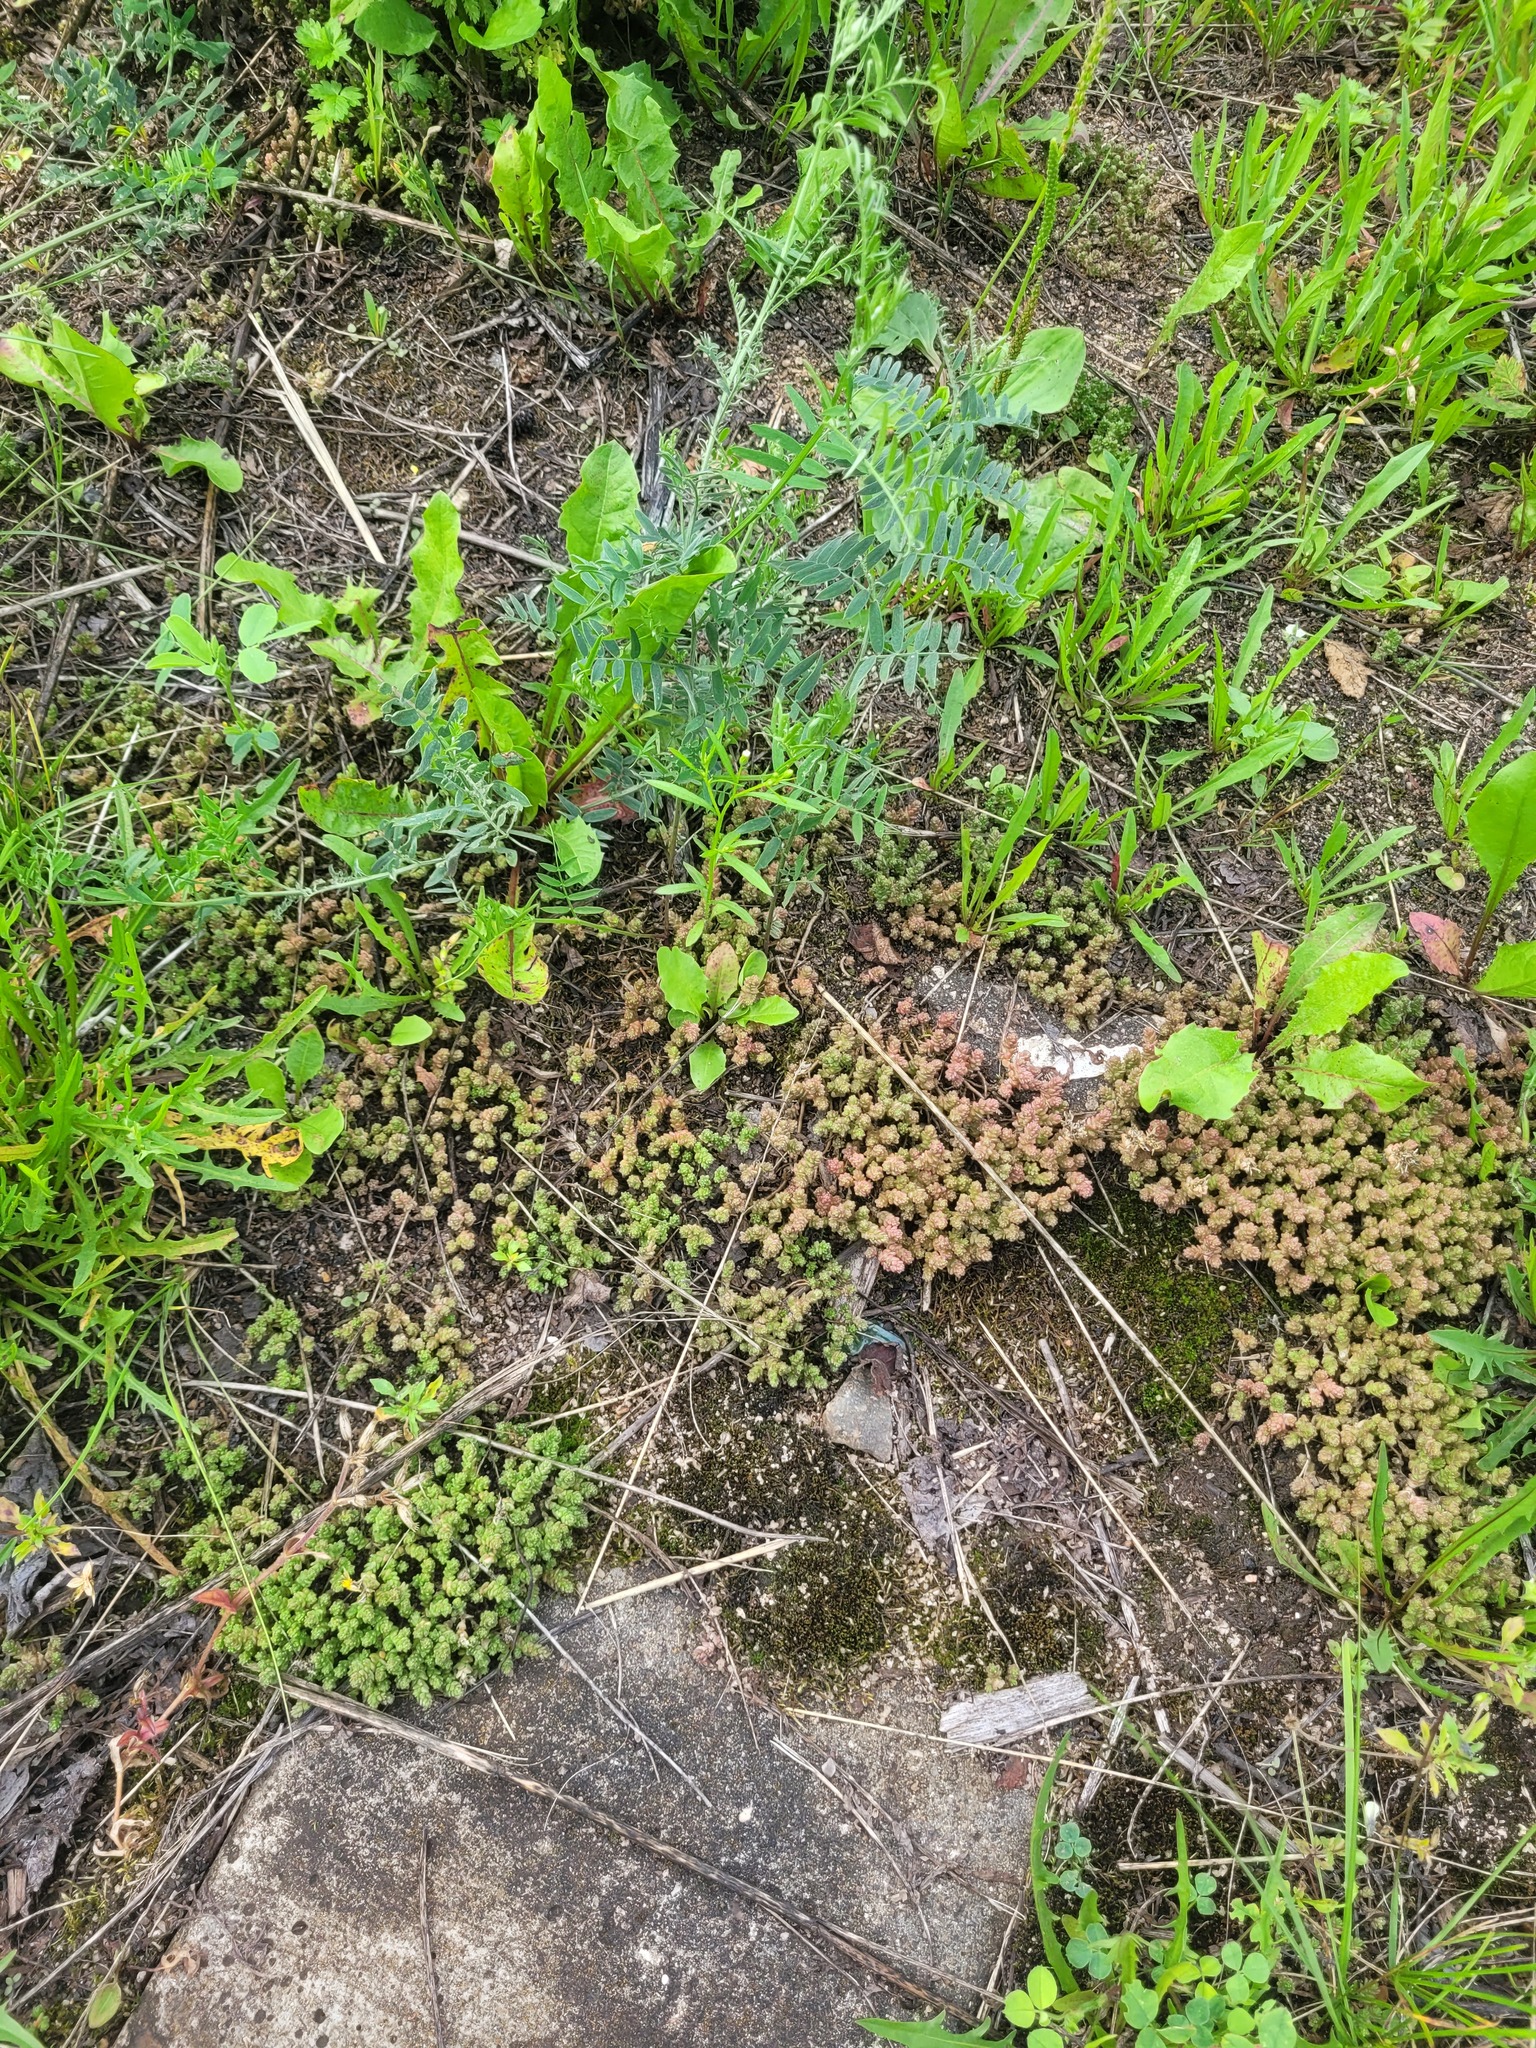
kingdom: Plantae
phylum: Tracheophyta
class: Magnoliopsida
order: Saxifragales
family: Crassulaceae
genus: Sedum
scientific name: Sedum acre
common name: Biting stonecrop
